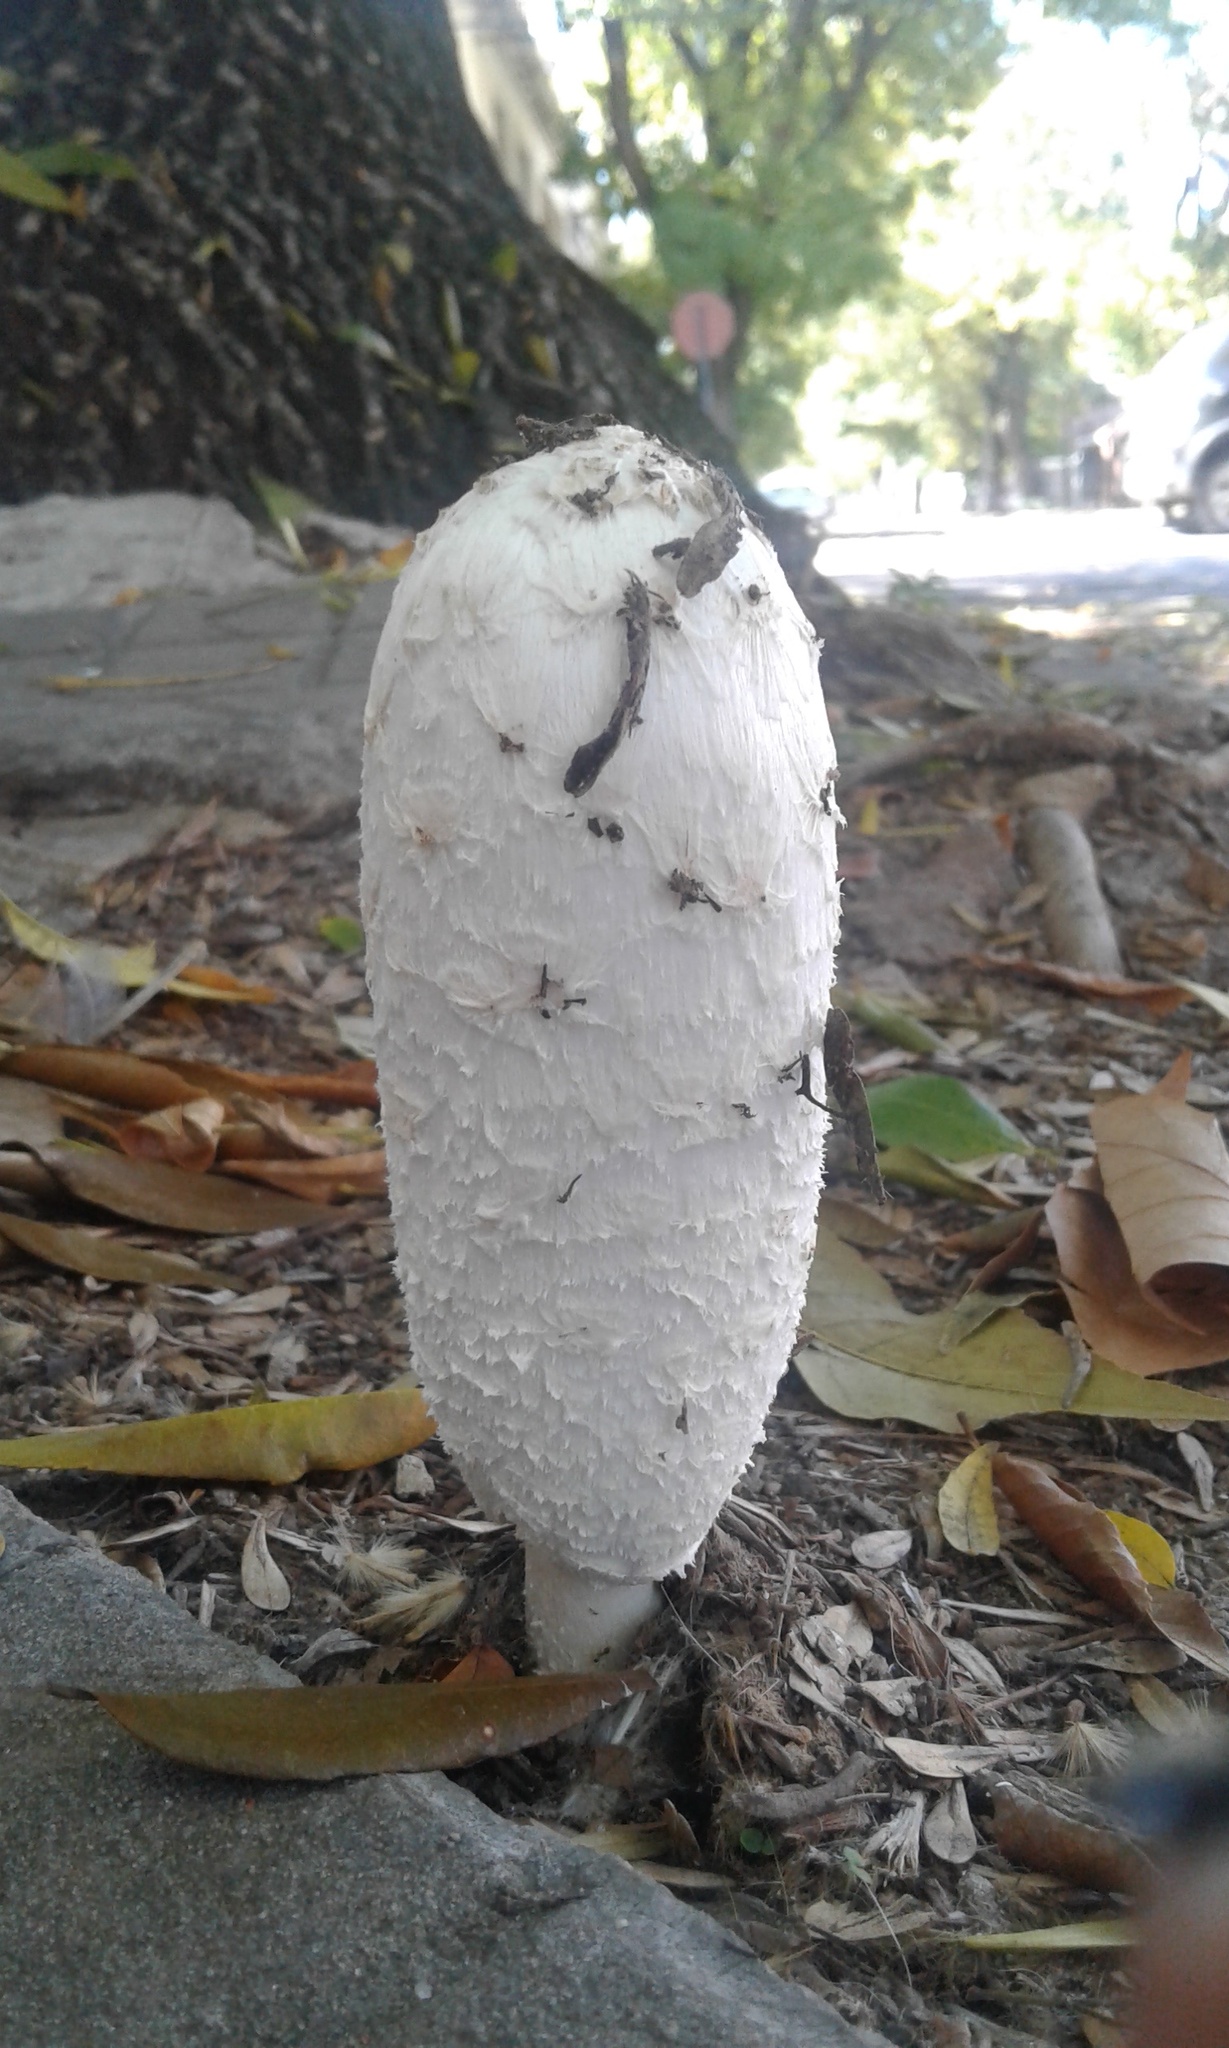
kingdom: Fungi
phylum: Basidiomycota
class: Agaricomycetes
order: Agaricales
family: Agaricaceae
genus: Coprinus
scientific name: Coprinus comatus
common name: Lawyer's wig
